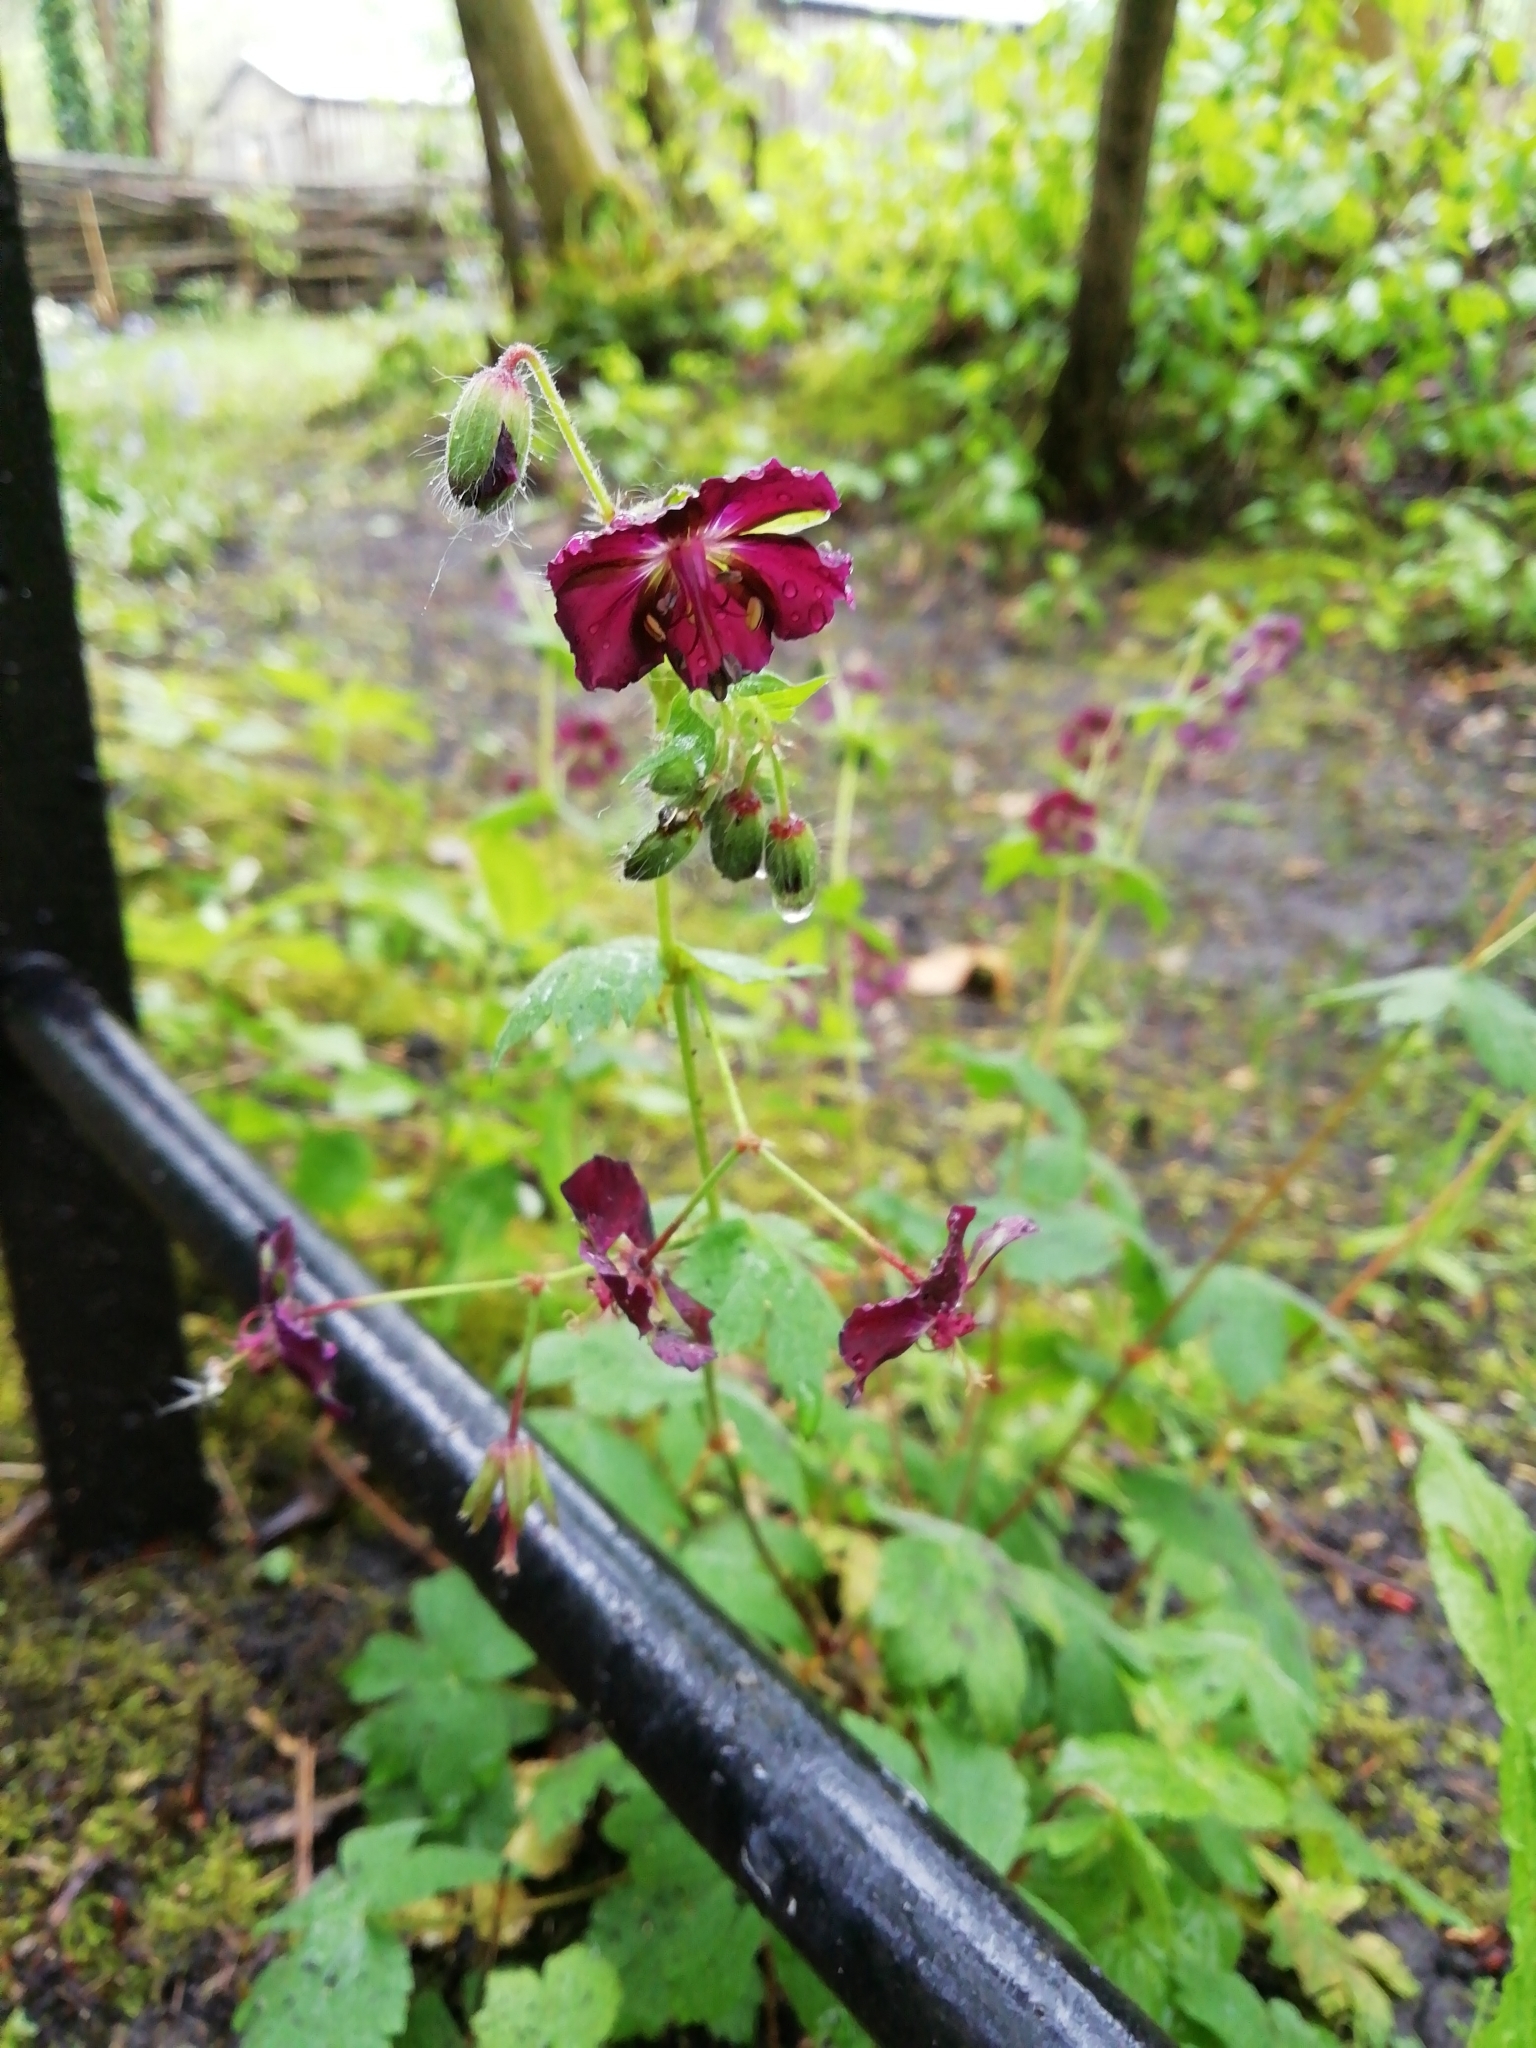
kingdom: Plantae
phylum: Tracheophyta
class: Magnoliopsida
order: Geraniales
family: Geraniaceae
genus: Geranium
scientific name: Geranium phaeum
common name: Dusky crane's-bill
